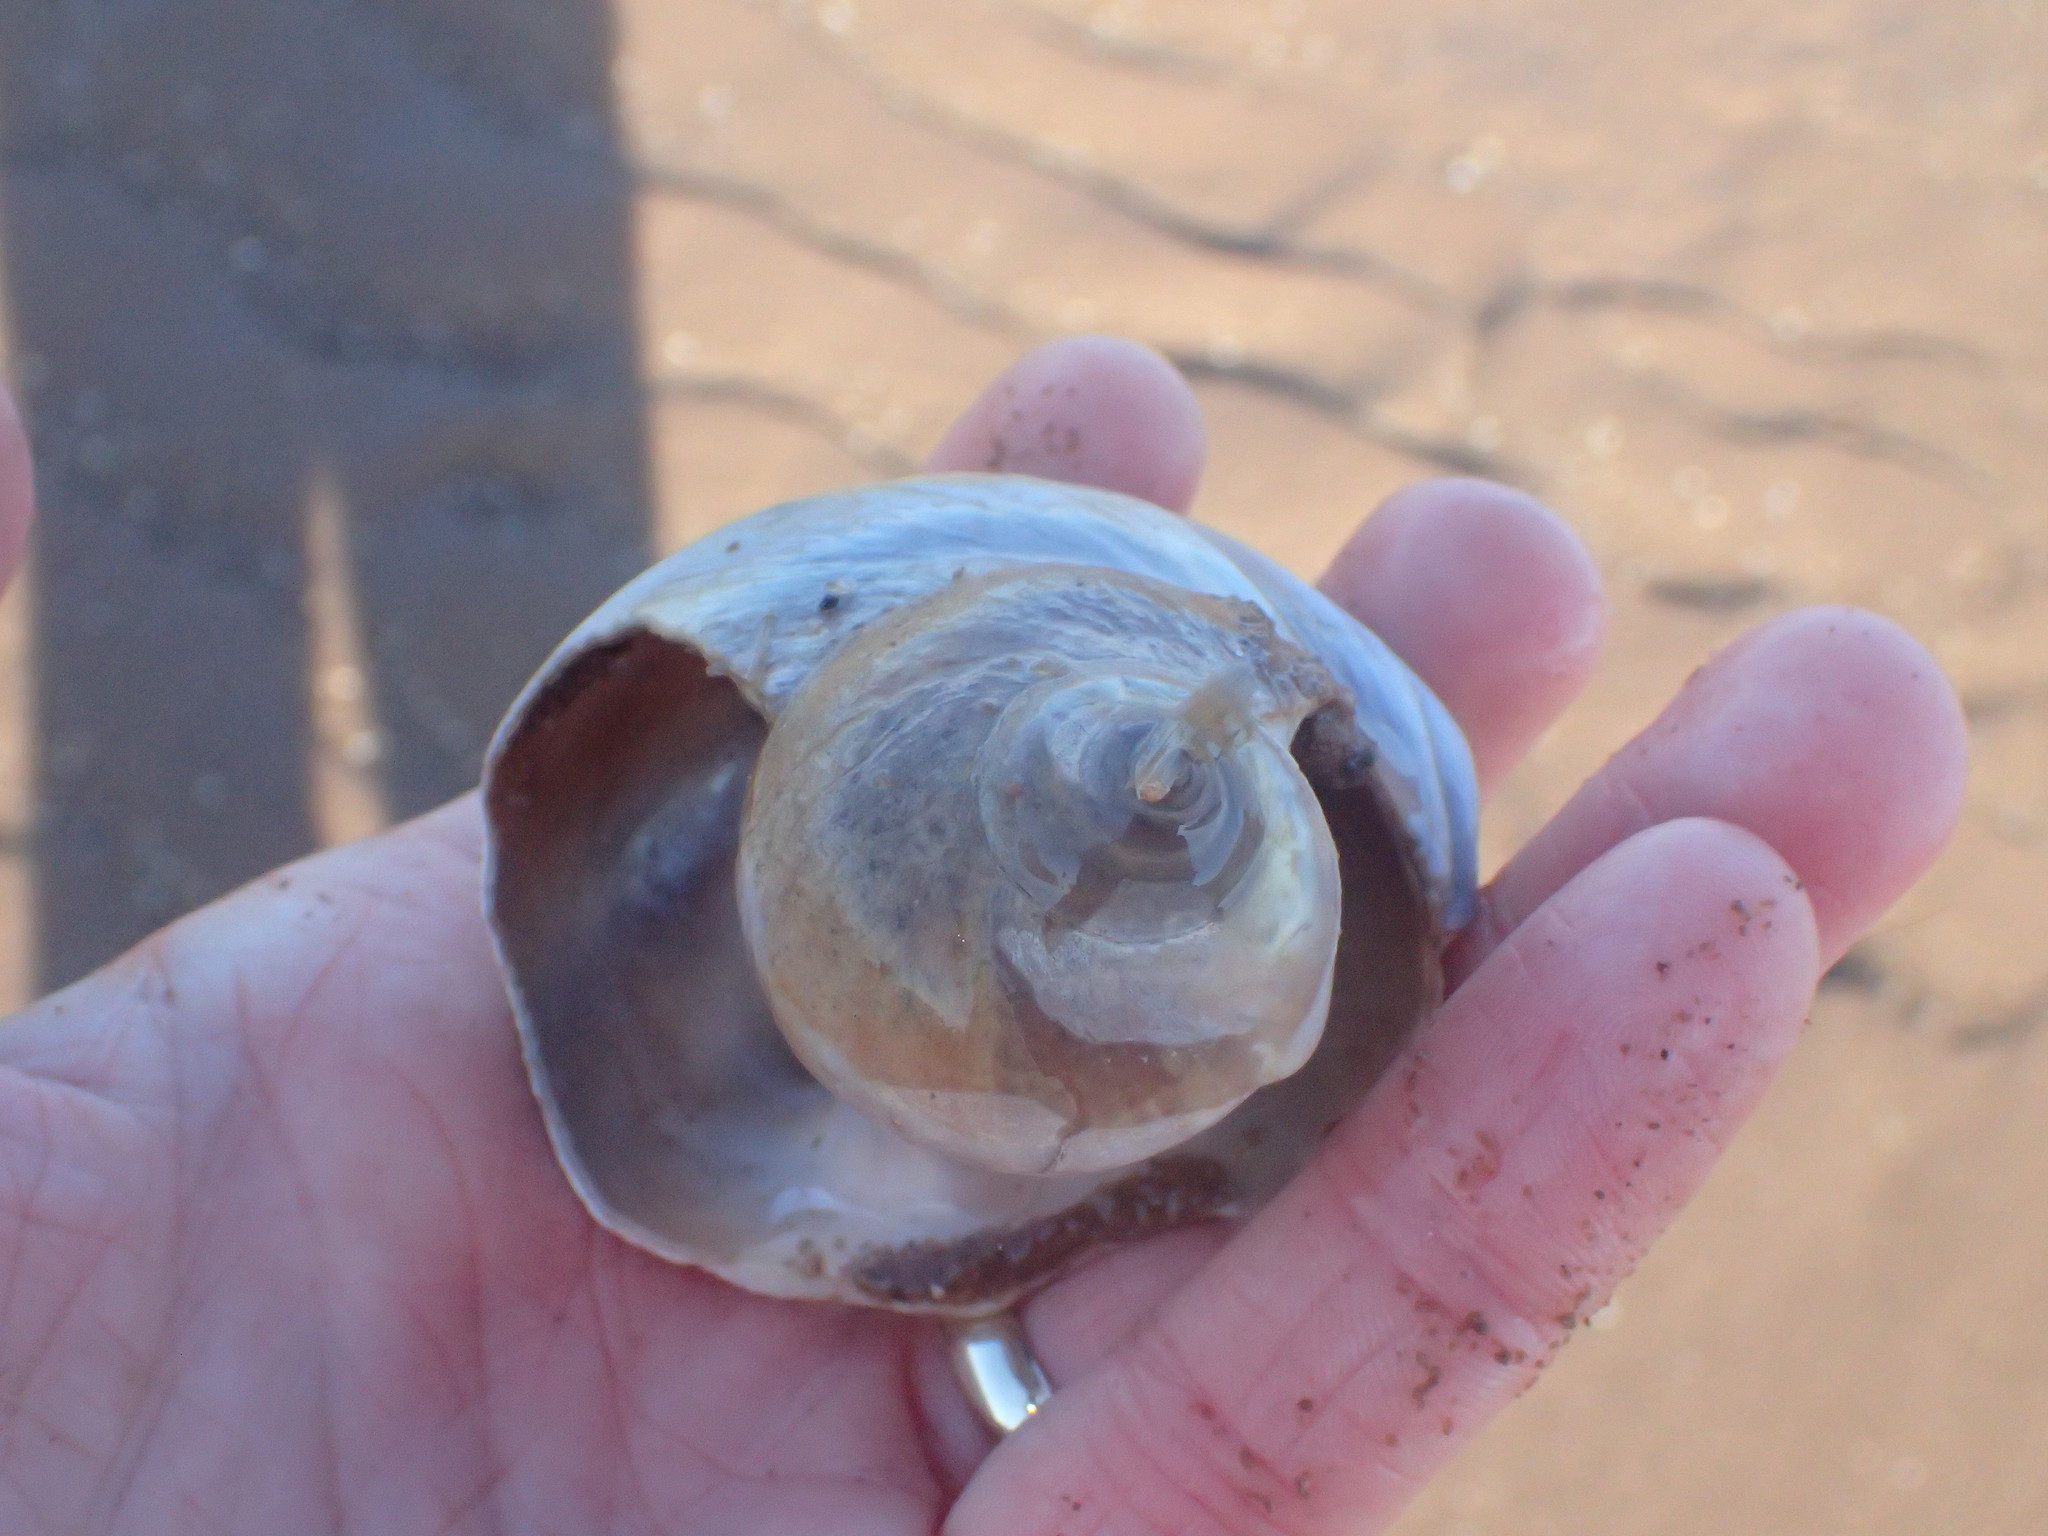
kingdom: Animalia
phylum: Mollusca
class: Gastropoda
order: Littorinimorpha
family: Naticidae
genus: Euspira
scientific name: Euspira heros
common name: Common northern moonsnail
